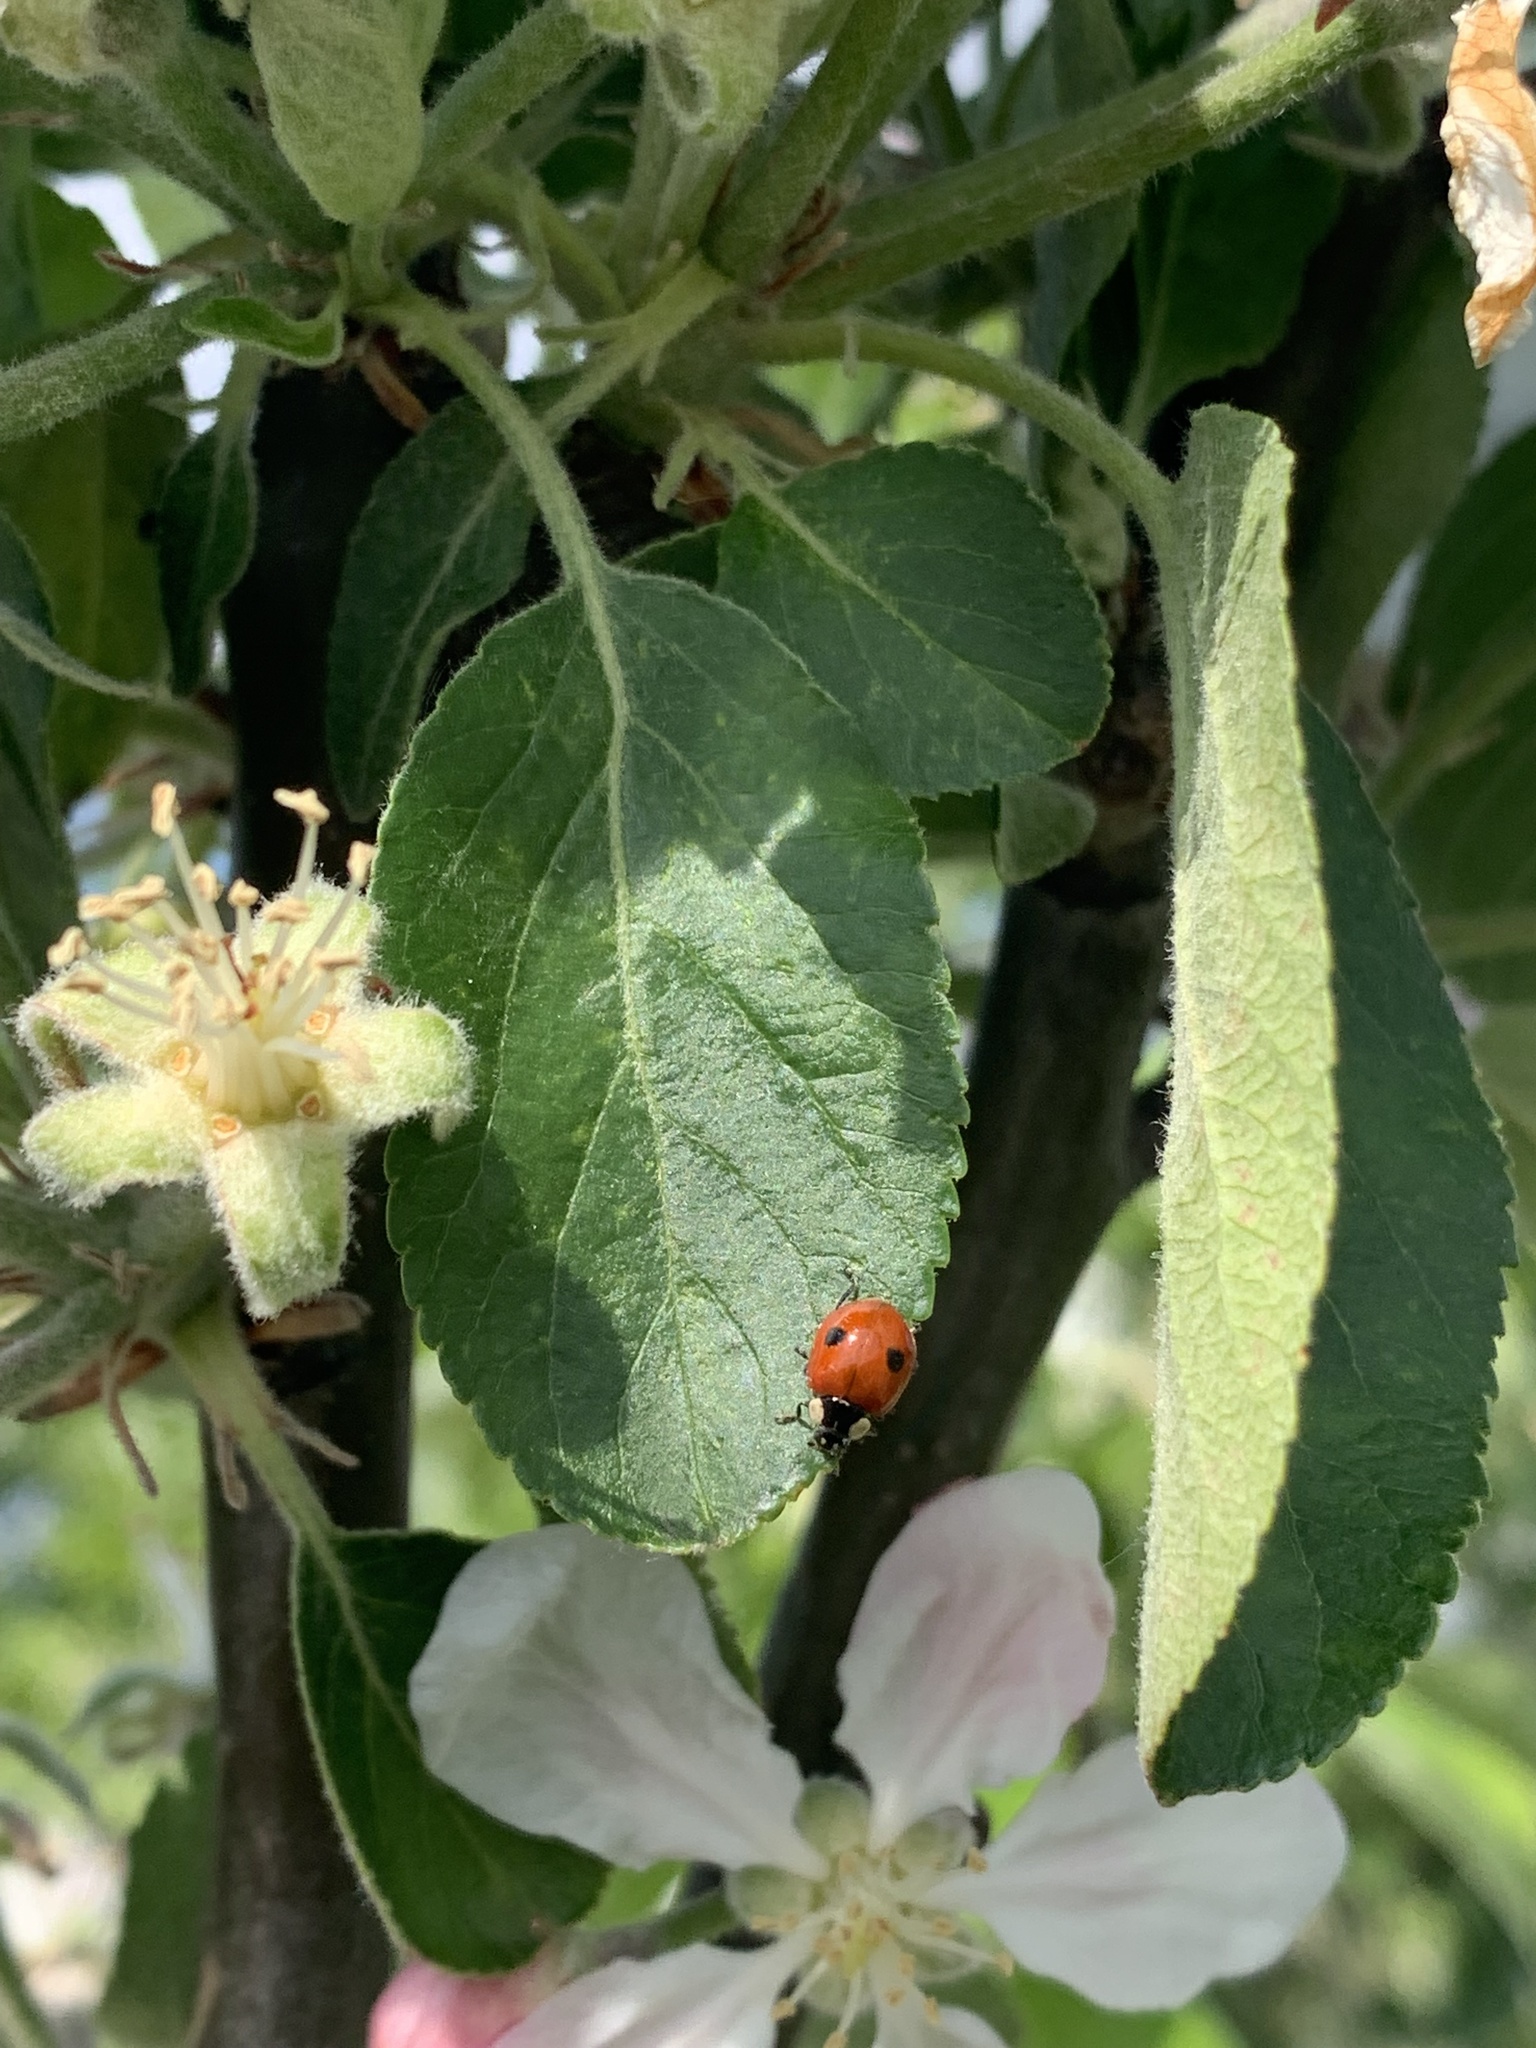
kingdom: Animalia
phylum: Arthropoda
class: Insecta
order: Coleoptera
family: Coccinellidae
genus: Adalia
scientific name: Adalia bipunctata
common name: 2-spot ladybird
